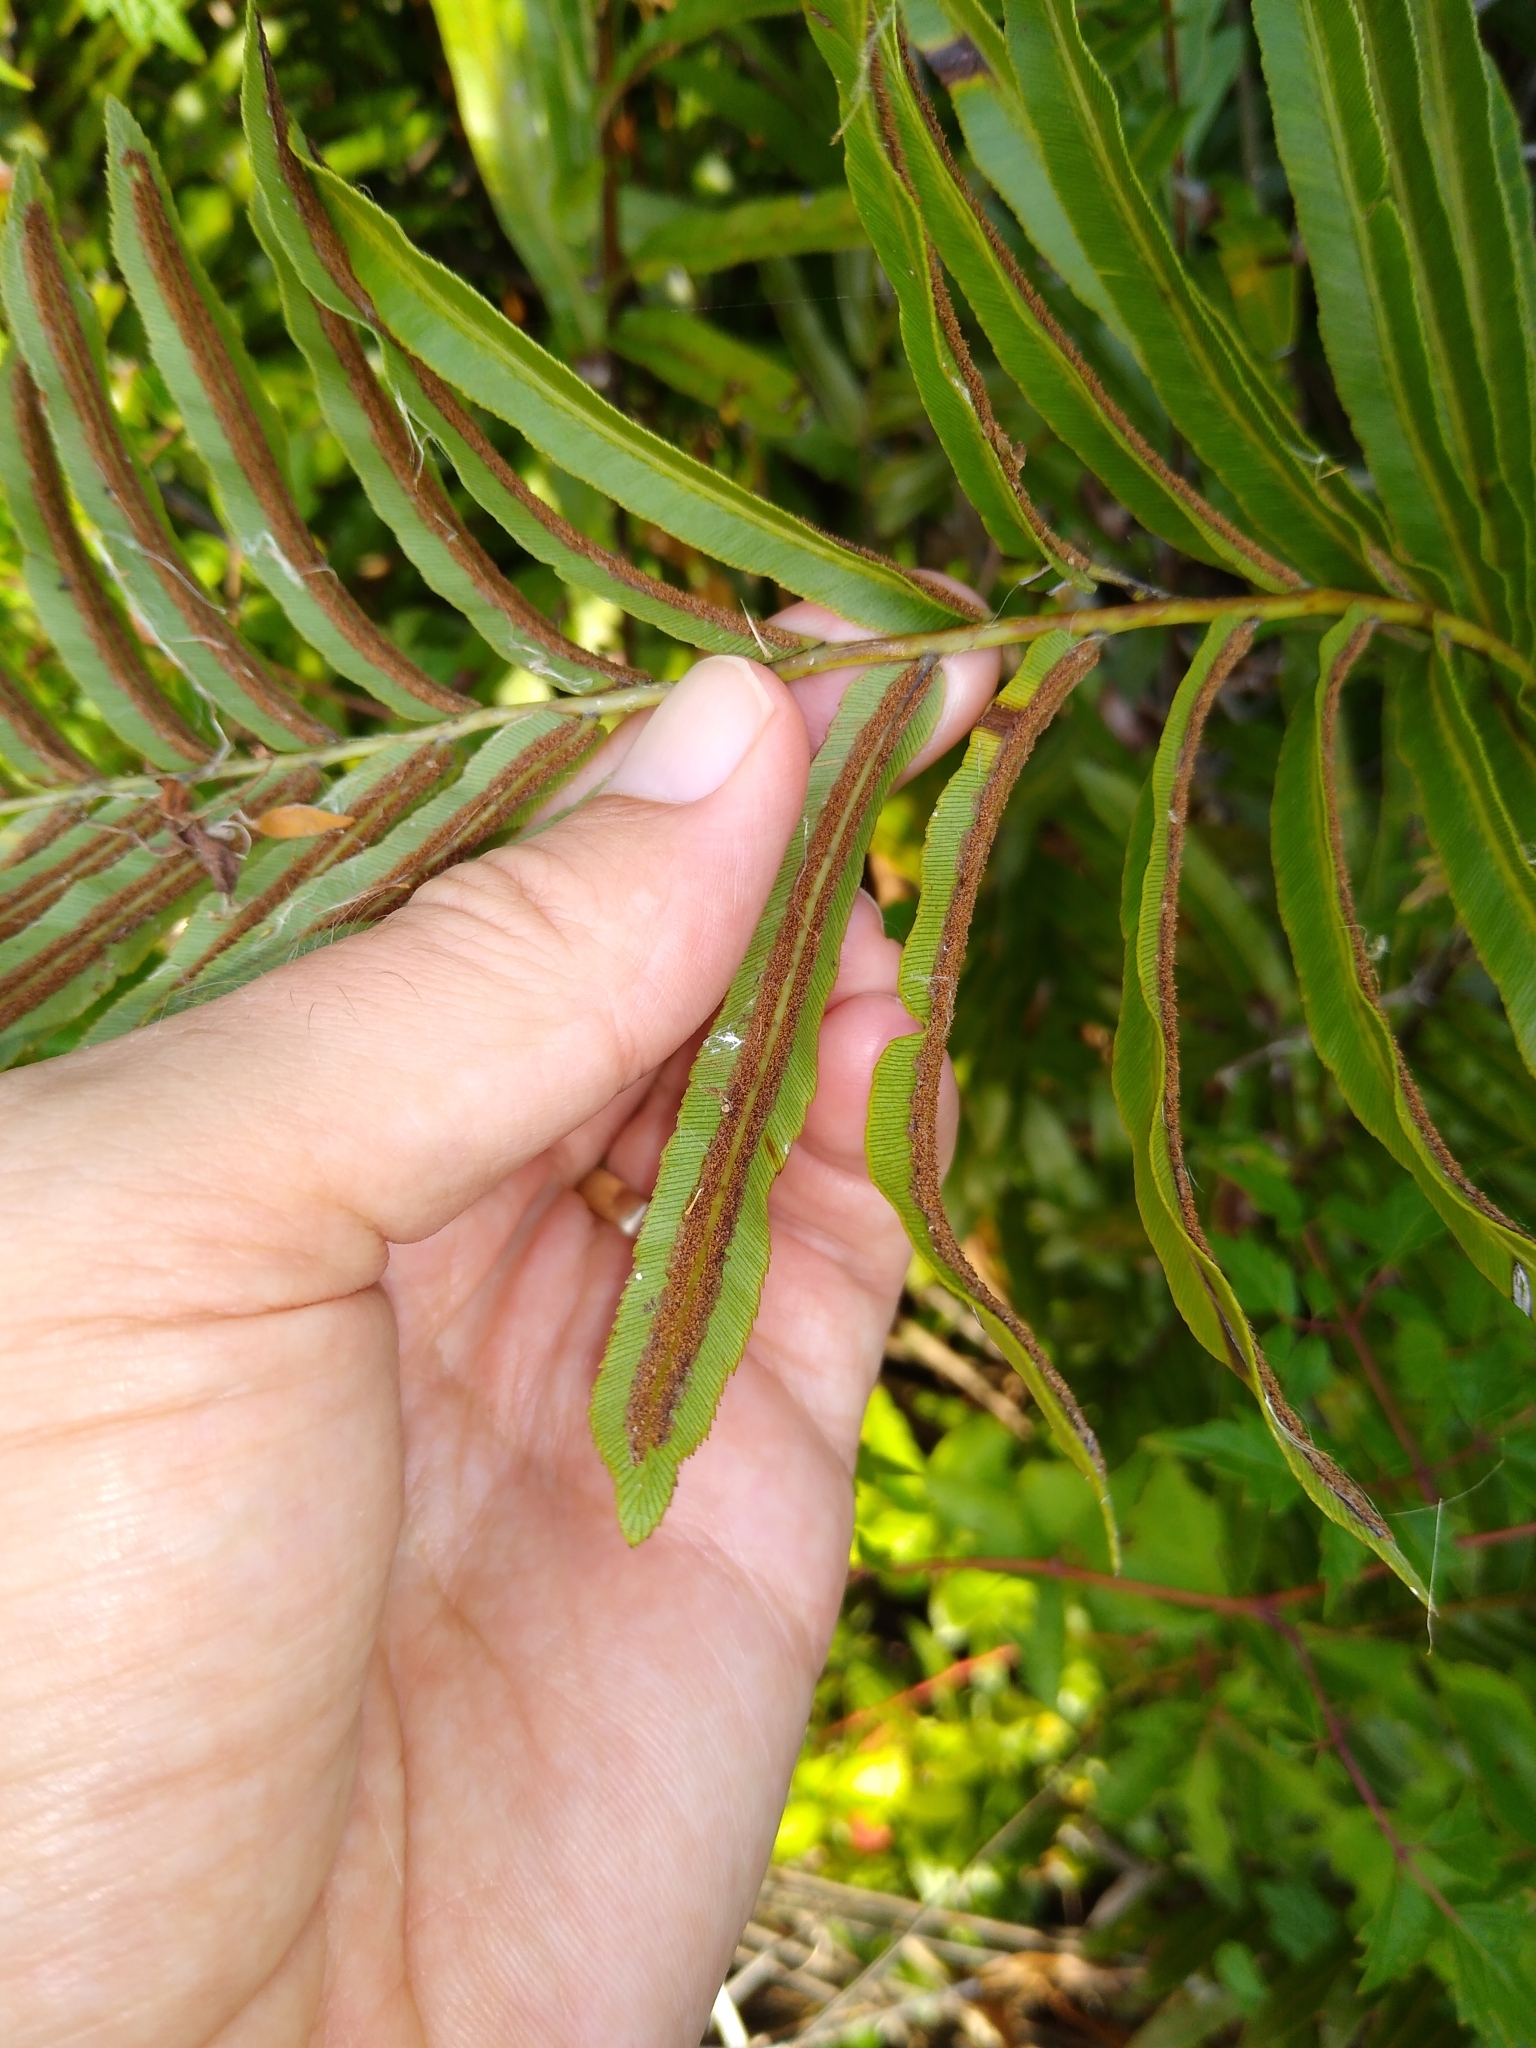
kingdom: Plantae
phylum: Tracheophyta
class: Polypodiopsida
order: Polypodiales
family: Blechnaceae
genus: Telmatoblechnum
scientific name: Telmatoblechnum serrulatum
